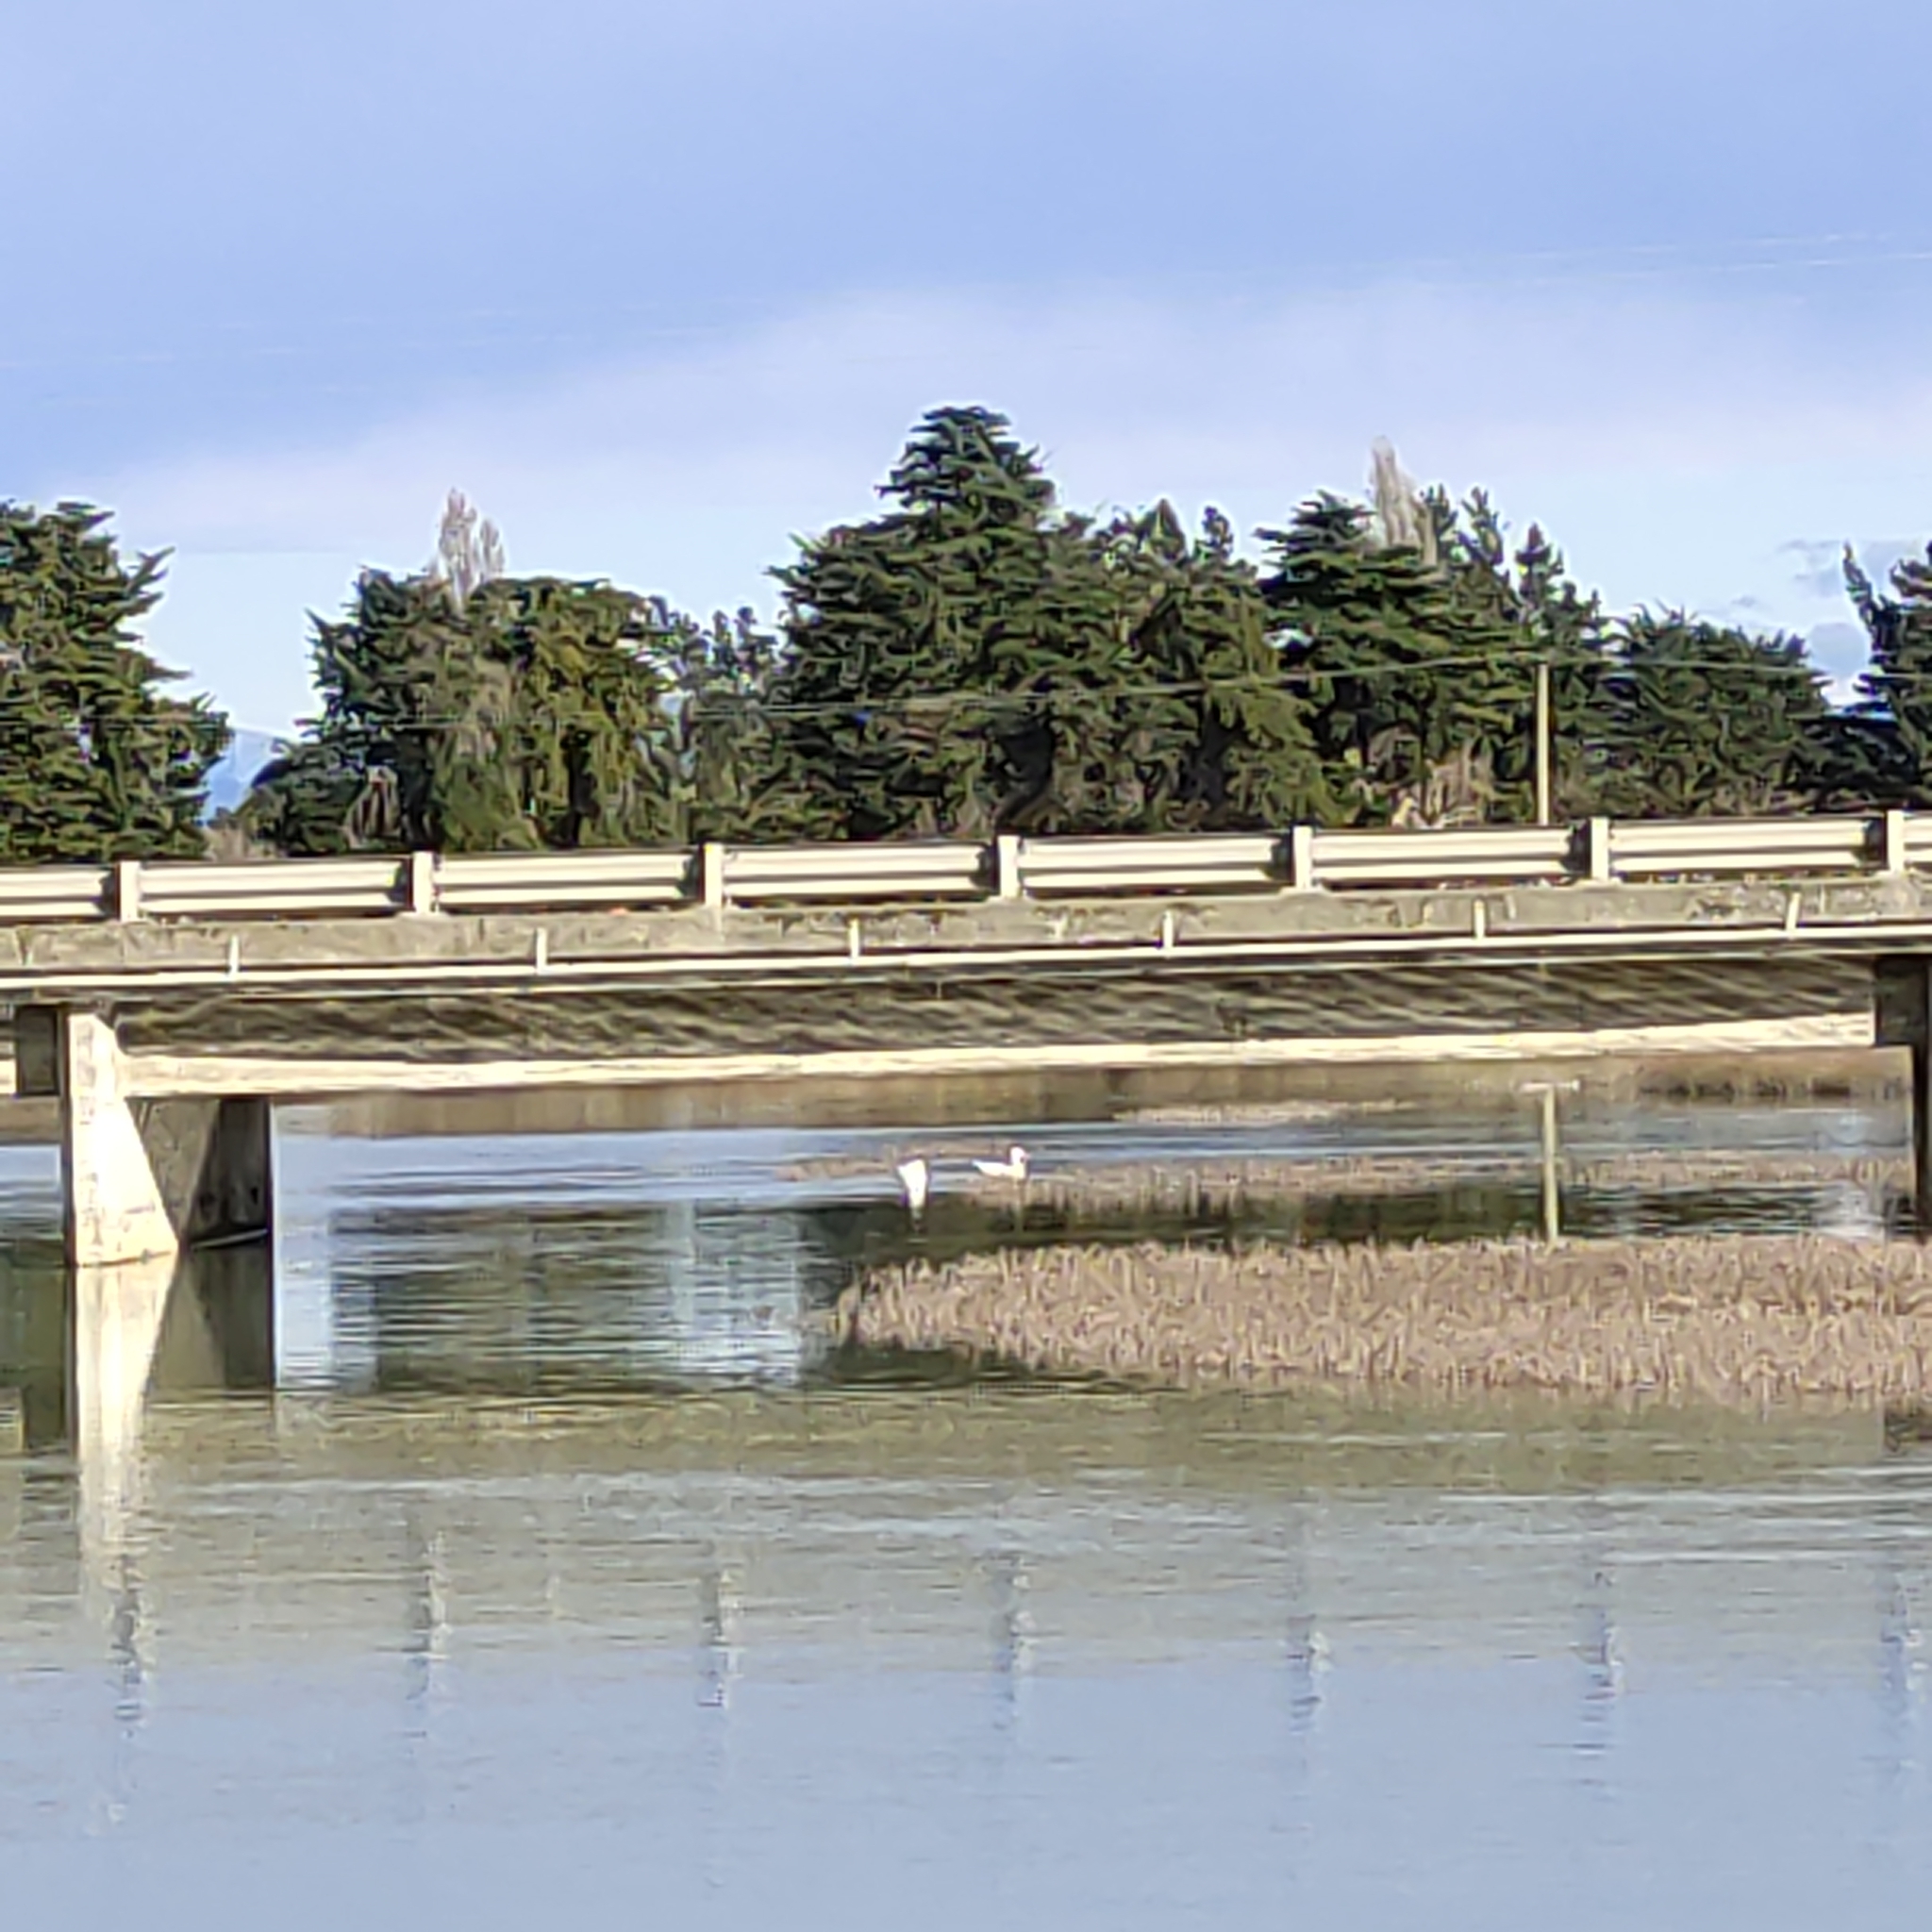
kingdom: Animalia
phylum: Chordata
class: Aves
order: Anseriformes
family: Anatidae
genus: Anser
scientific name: Anser anser
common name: Greylag goose
